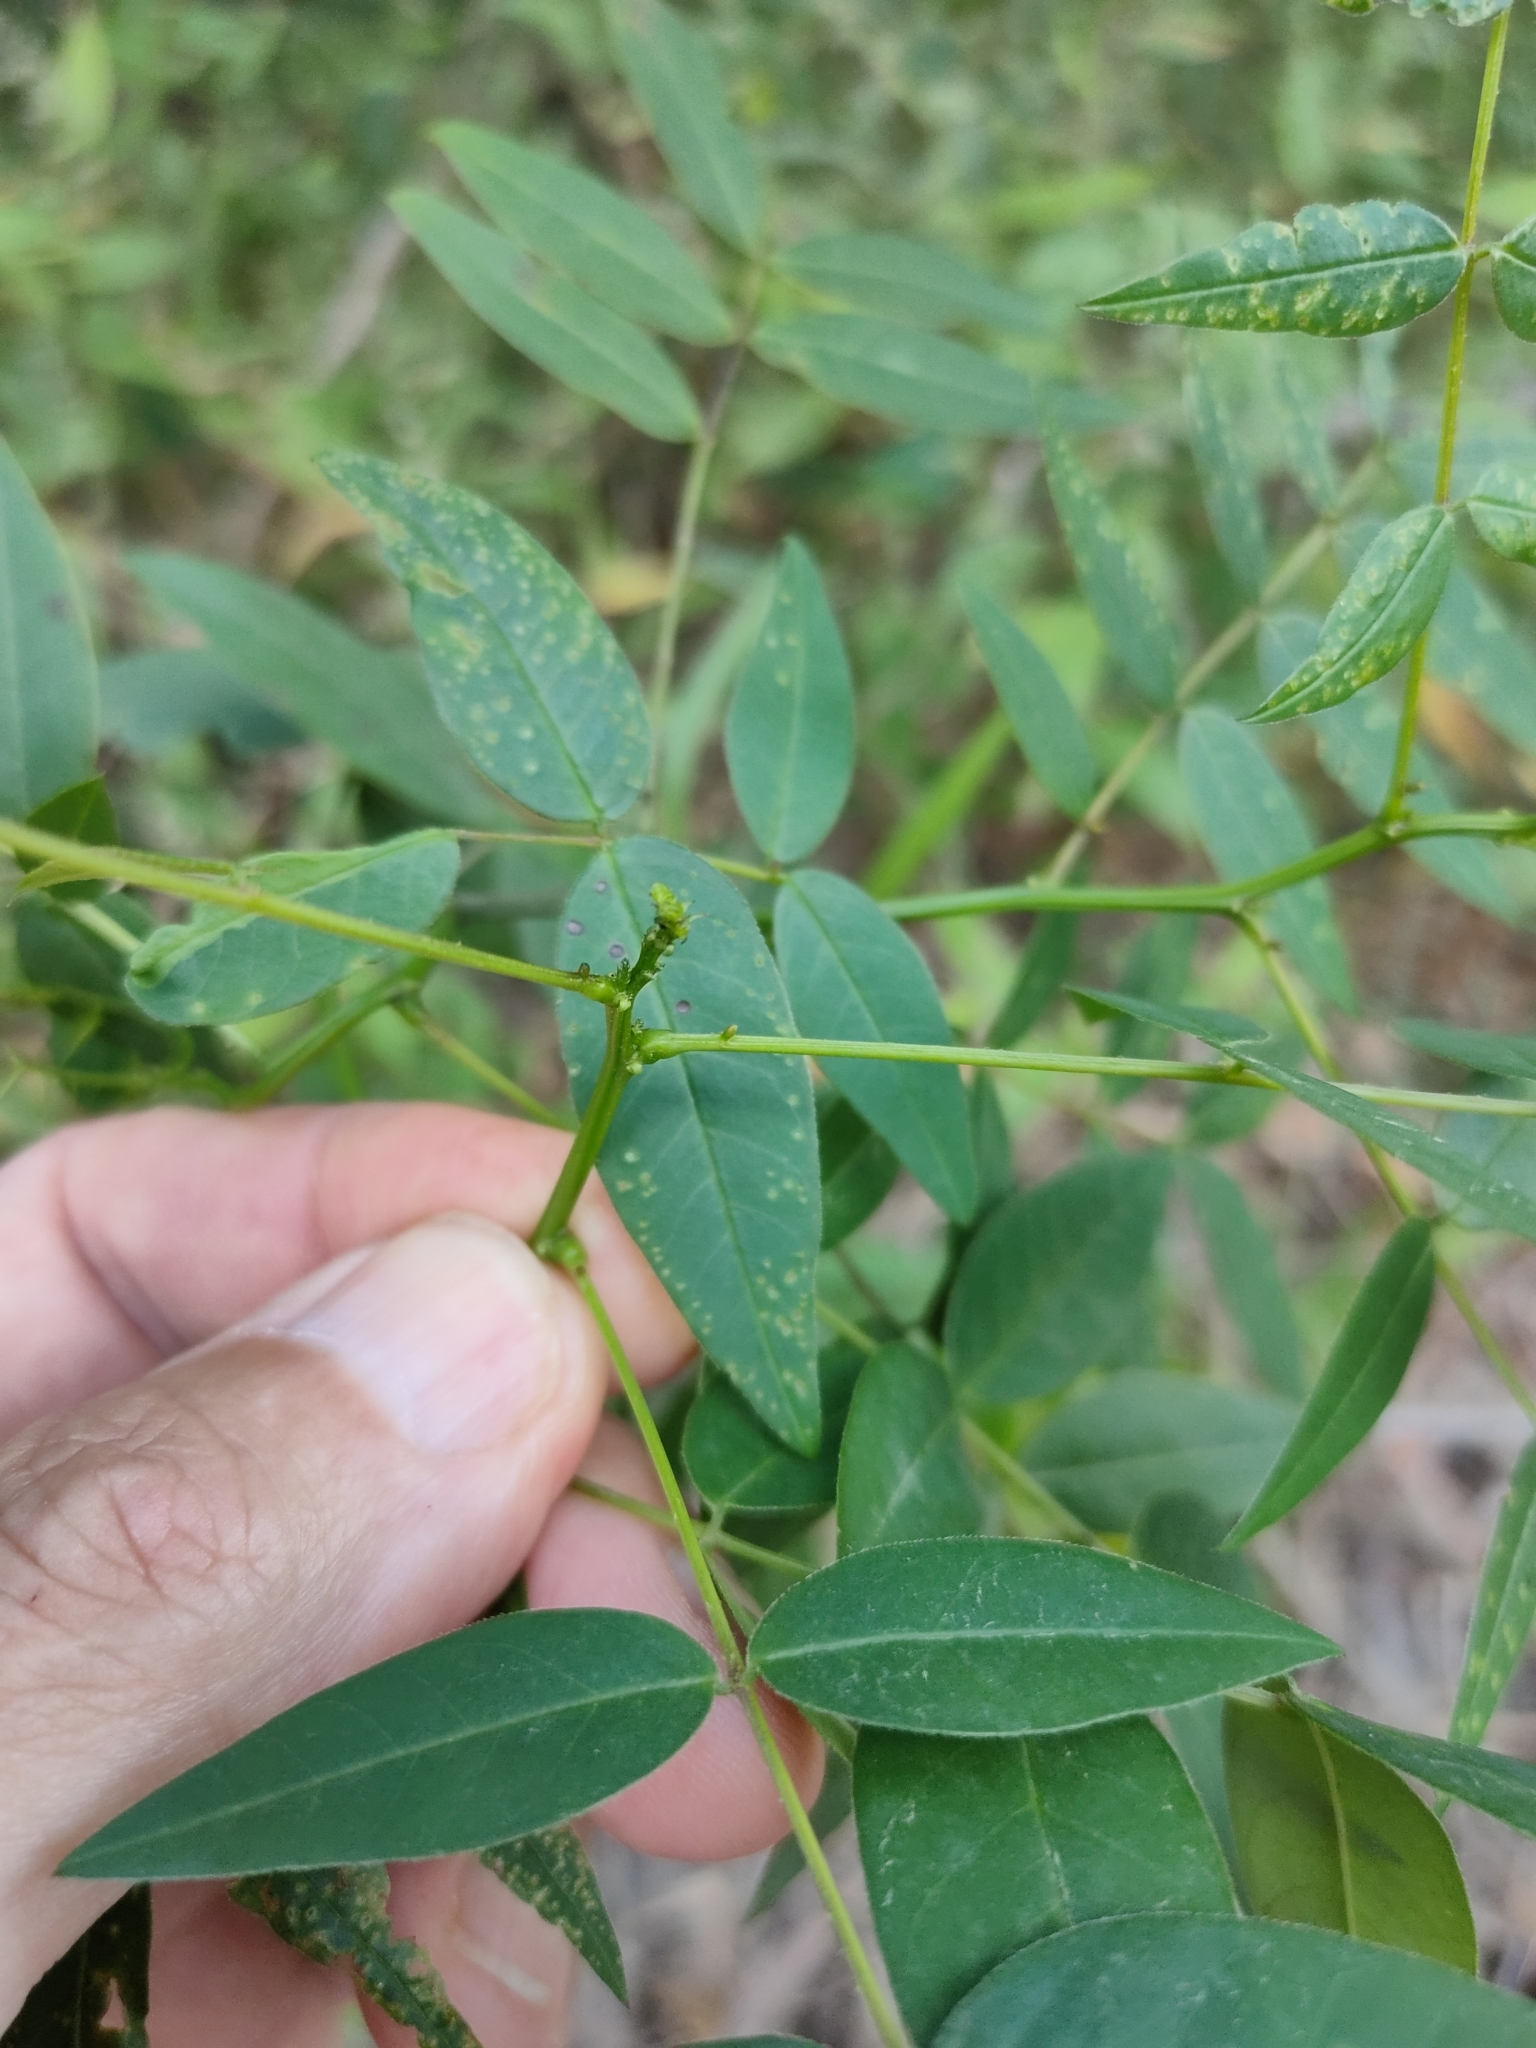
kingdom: Plantae
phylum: Tracheophyta
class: Magnoliopsida
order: Fabales
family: Fabaceae
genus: Senna
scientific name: Senna sophera
